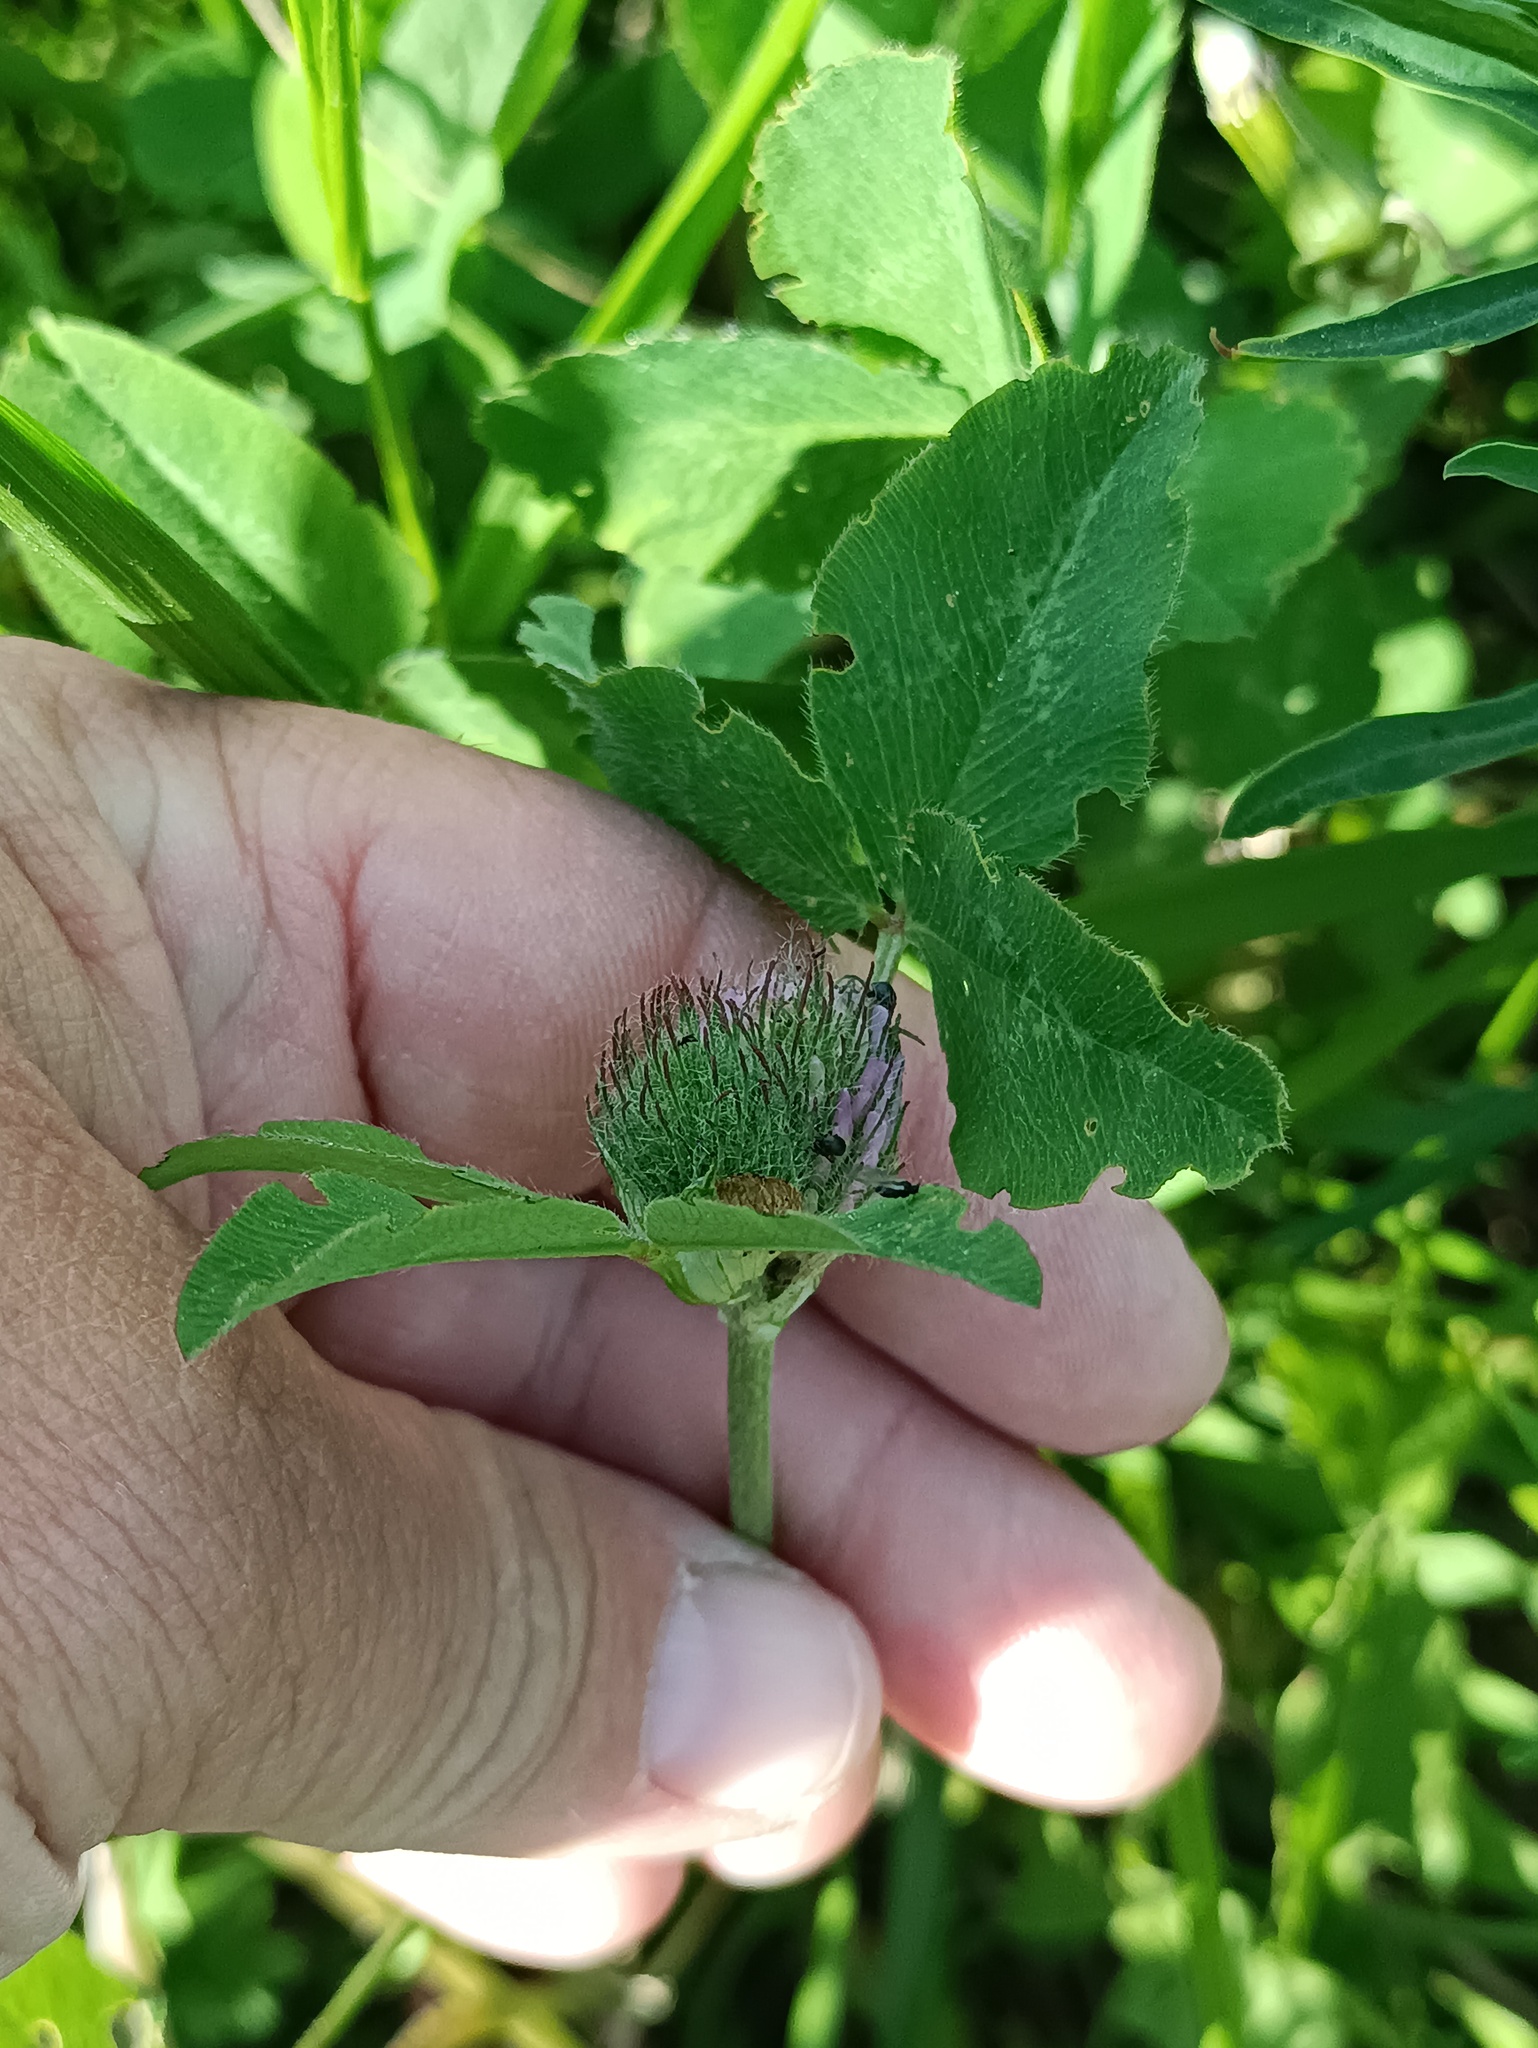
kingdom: Plantae
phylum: Tracheophyta
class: Magnoliopsida
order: Fabales
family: Fabaceae
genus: Trifolium
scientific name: Trifolium pratense
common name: Red clover
